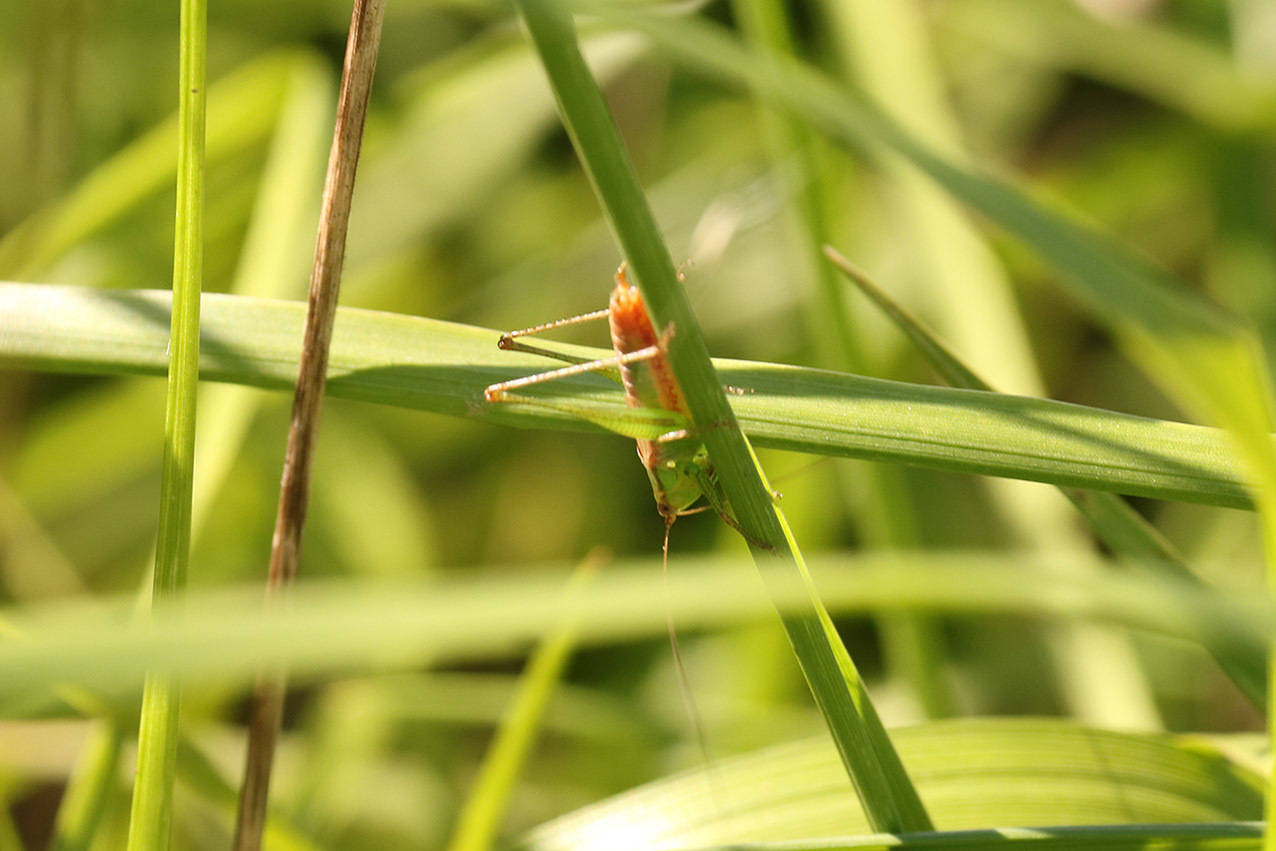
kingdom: Animalia
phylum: Arthropoda
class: Insecta
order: Orthoptera
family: Tettigoniidae
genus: Conocephalus
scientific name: Conocephalus doryphorus
